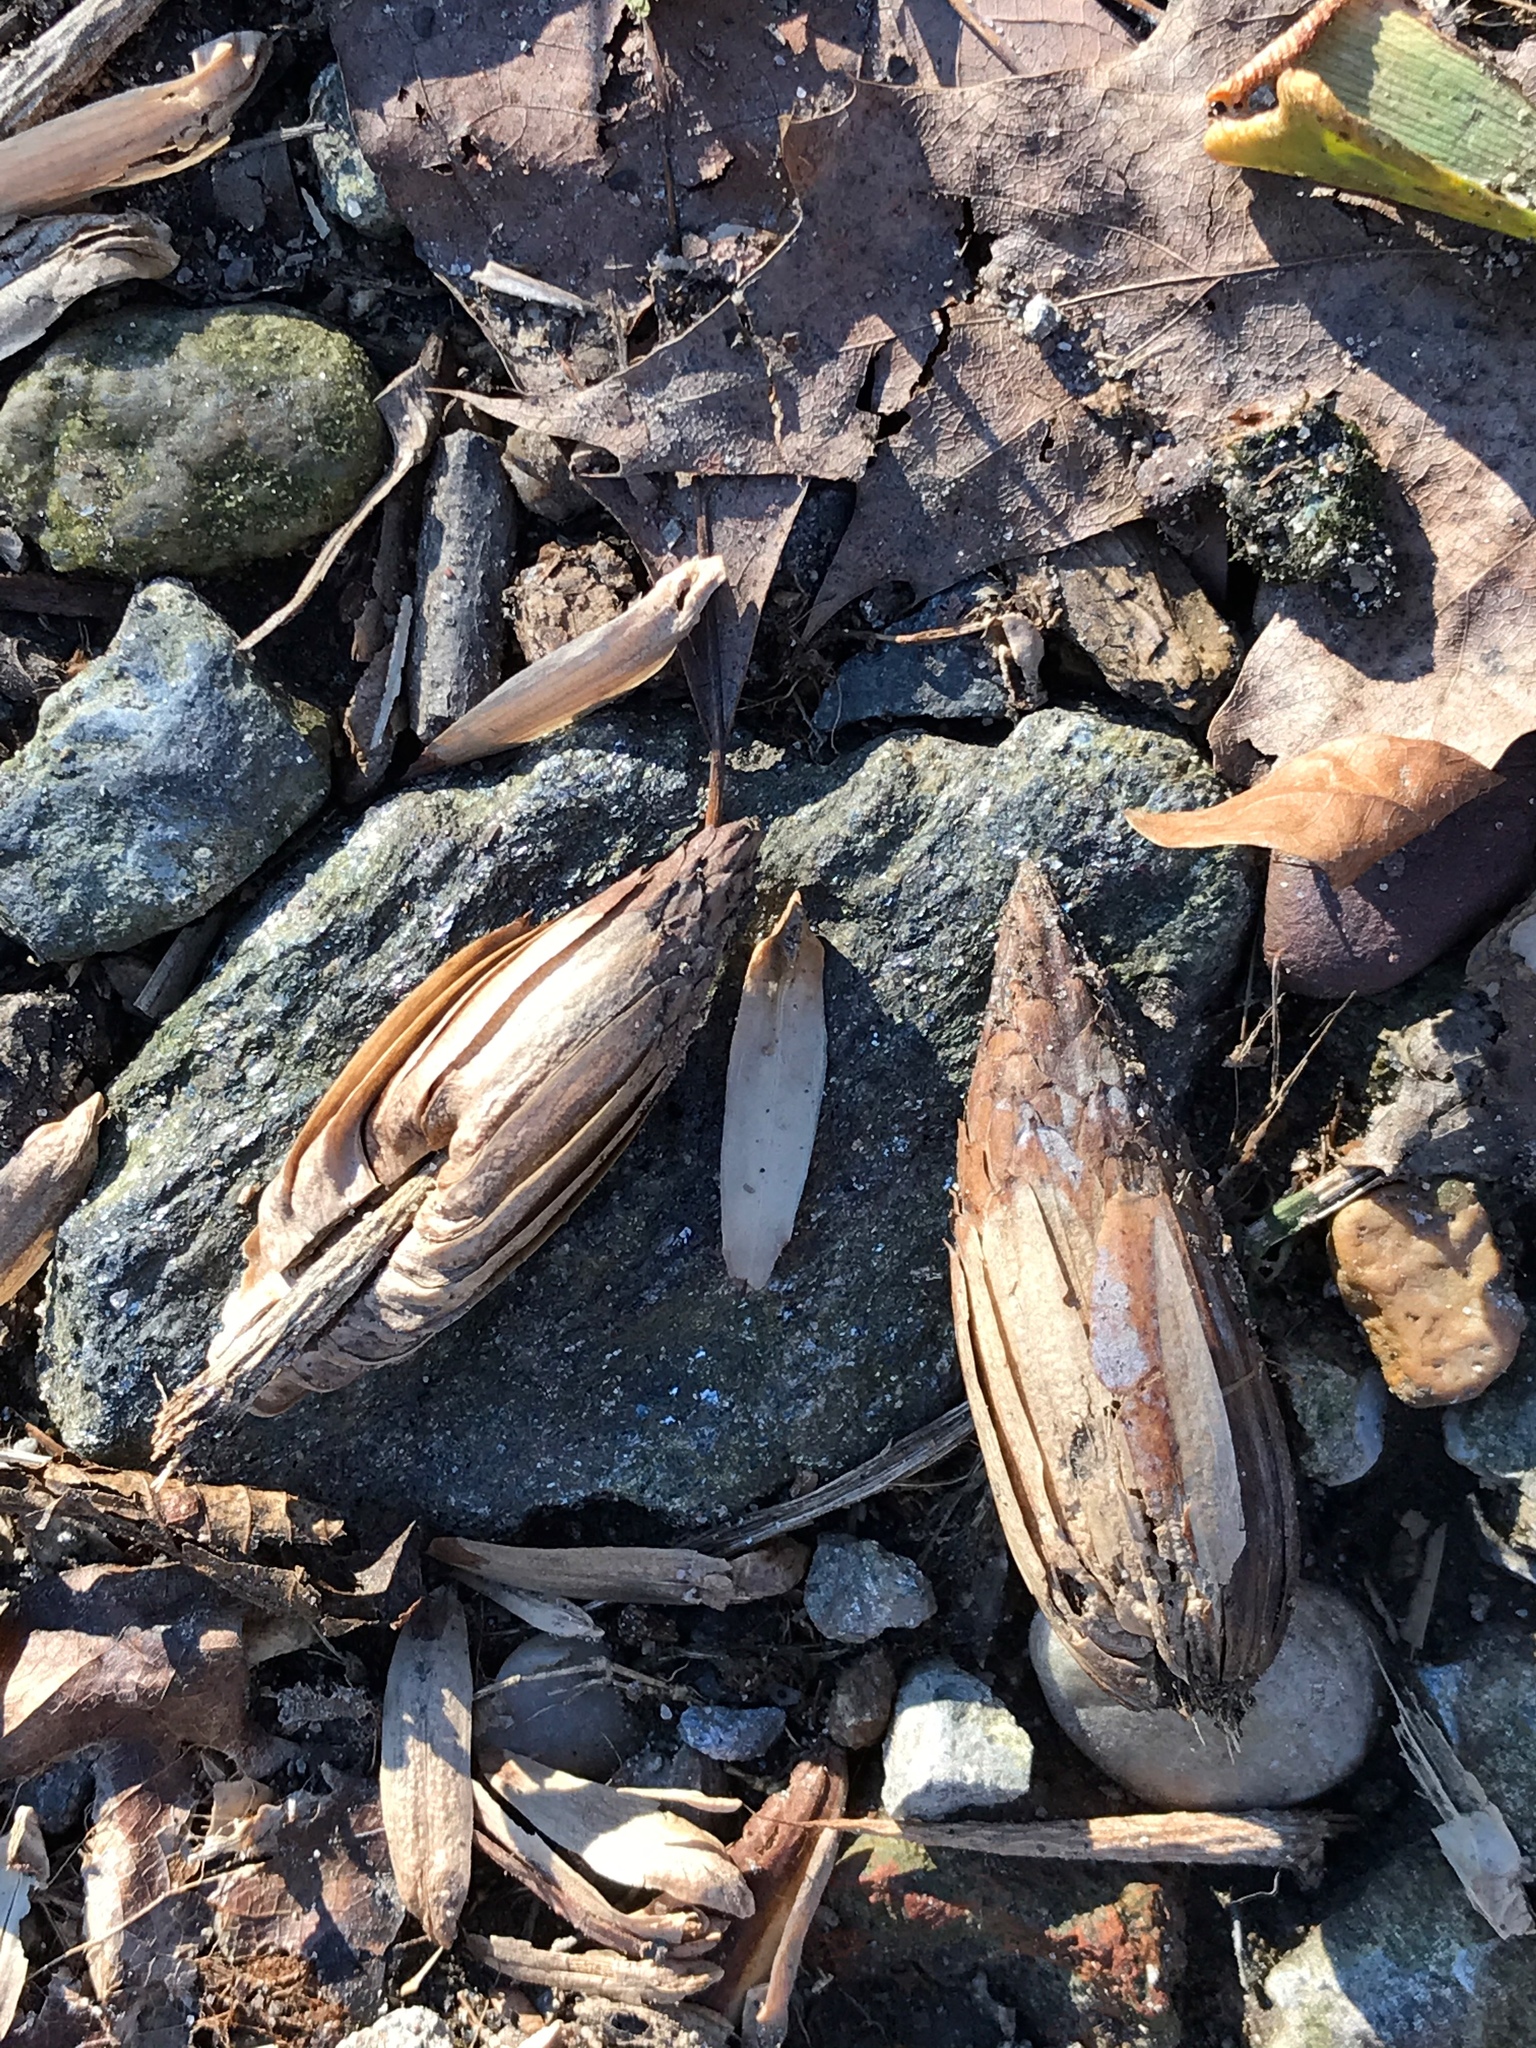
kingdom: Plantae
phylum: Tracheophyta
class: Magnoliopsida
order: Magnoliales
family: Magnoliaceae
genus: Liriodendron
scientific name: Liriodendron tulipifera
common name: Tulip tree
